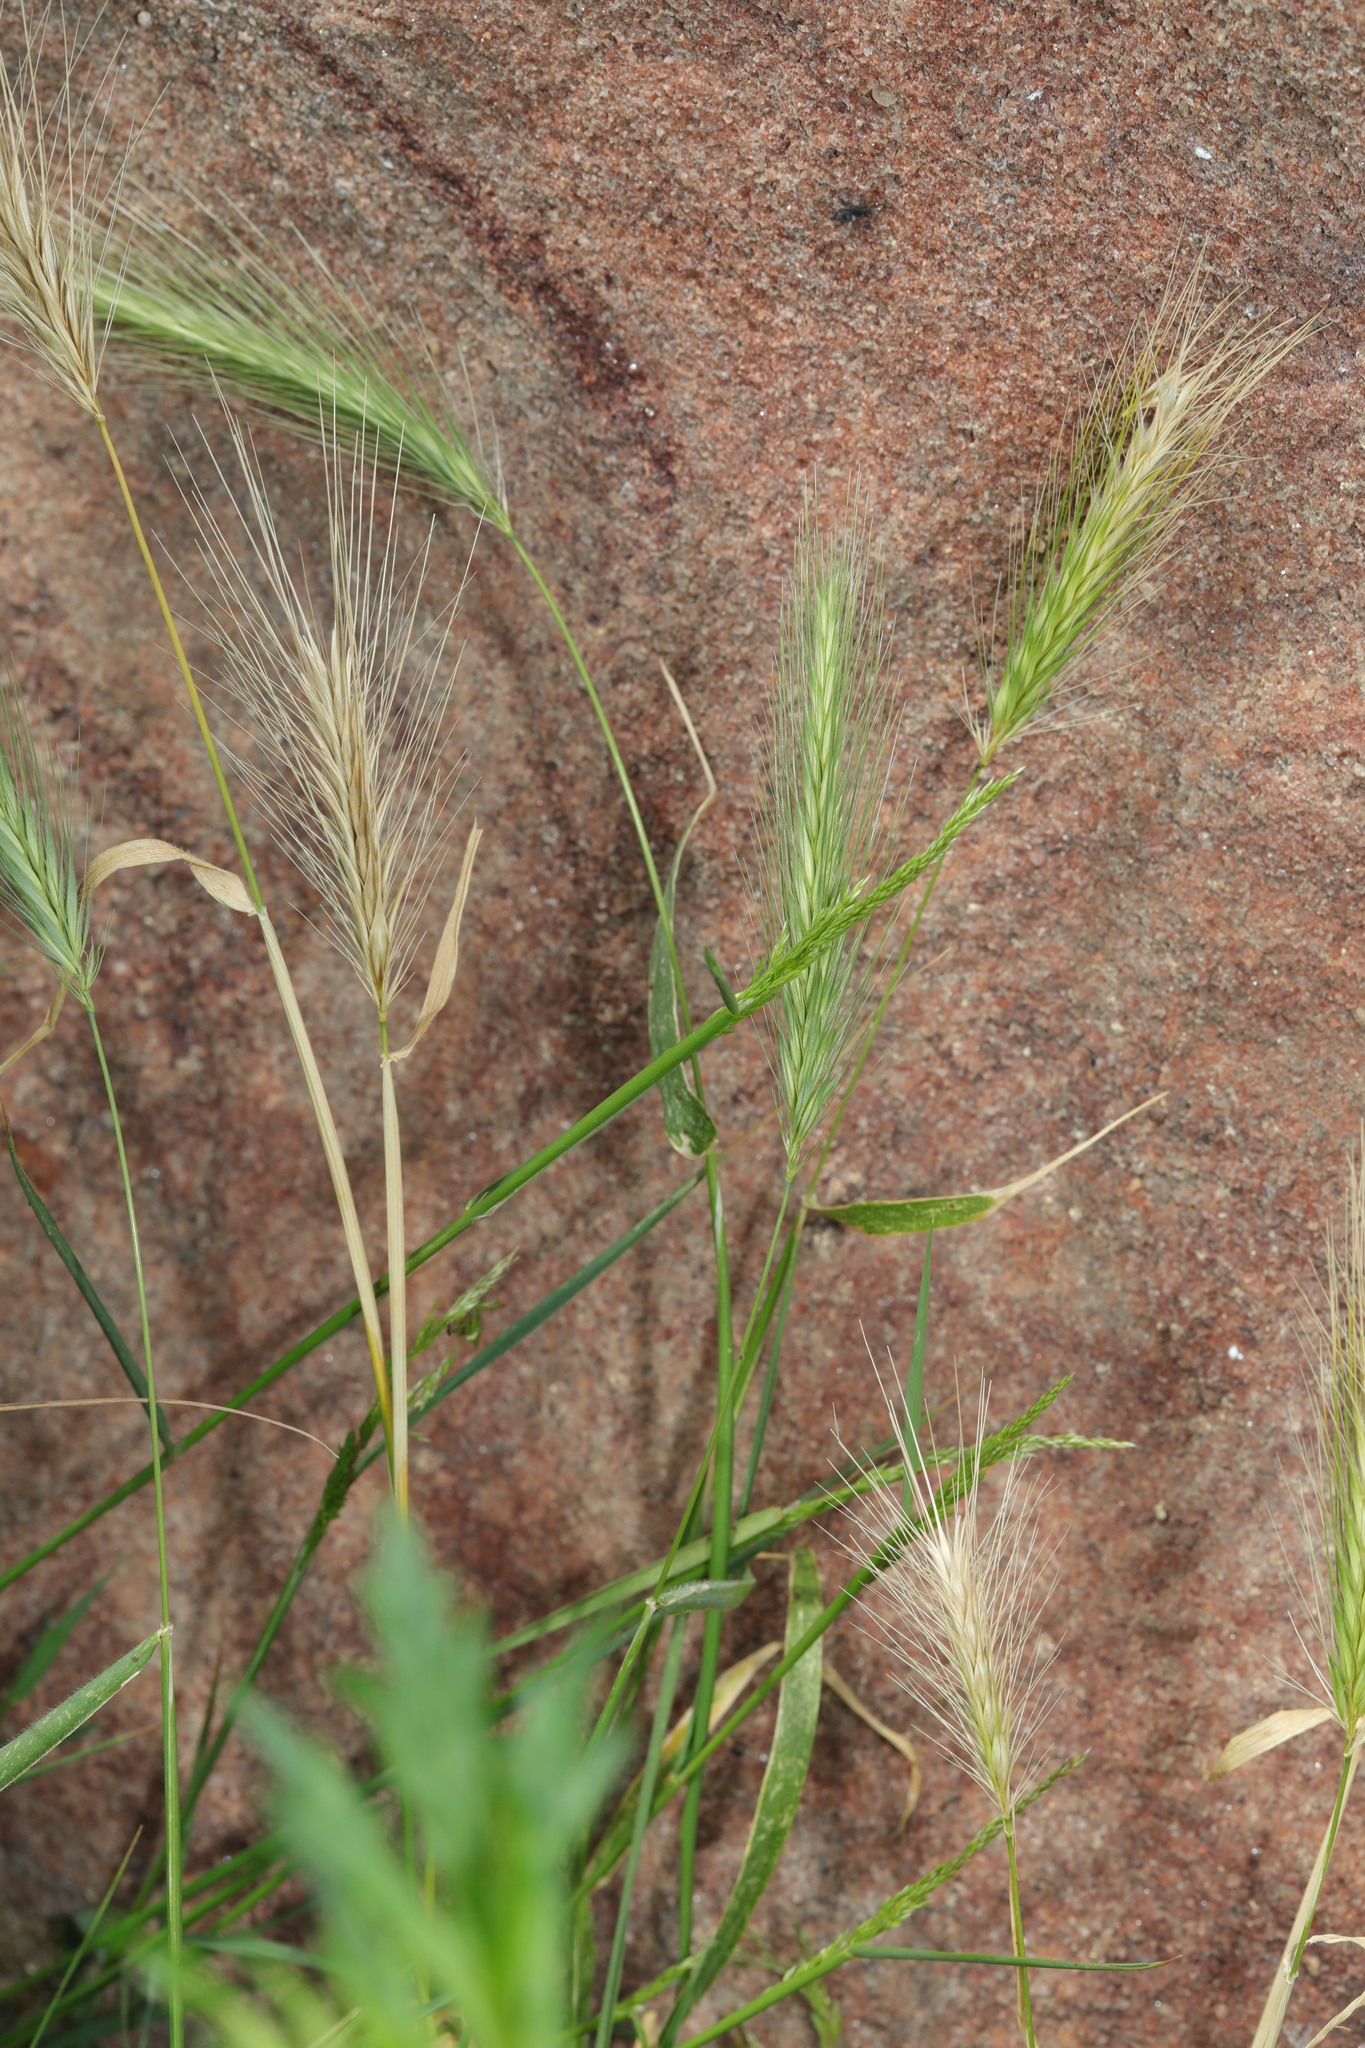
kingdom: Plantae
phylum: Tracheophyta
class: Liliopsida
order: Poales
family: Poaceae
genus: Hordeum
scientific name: Hordeum murinum
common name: Wall barley
